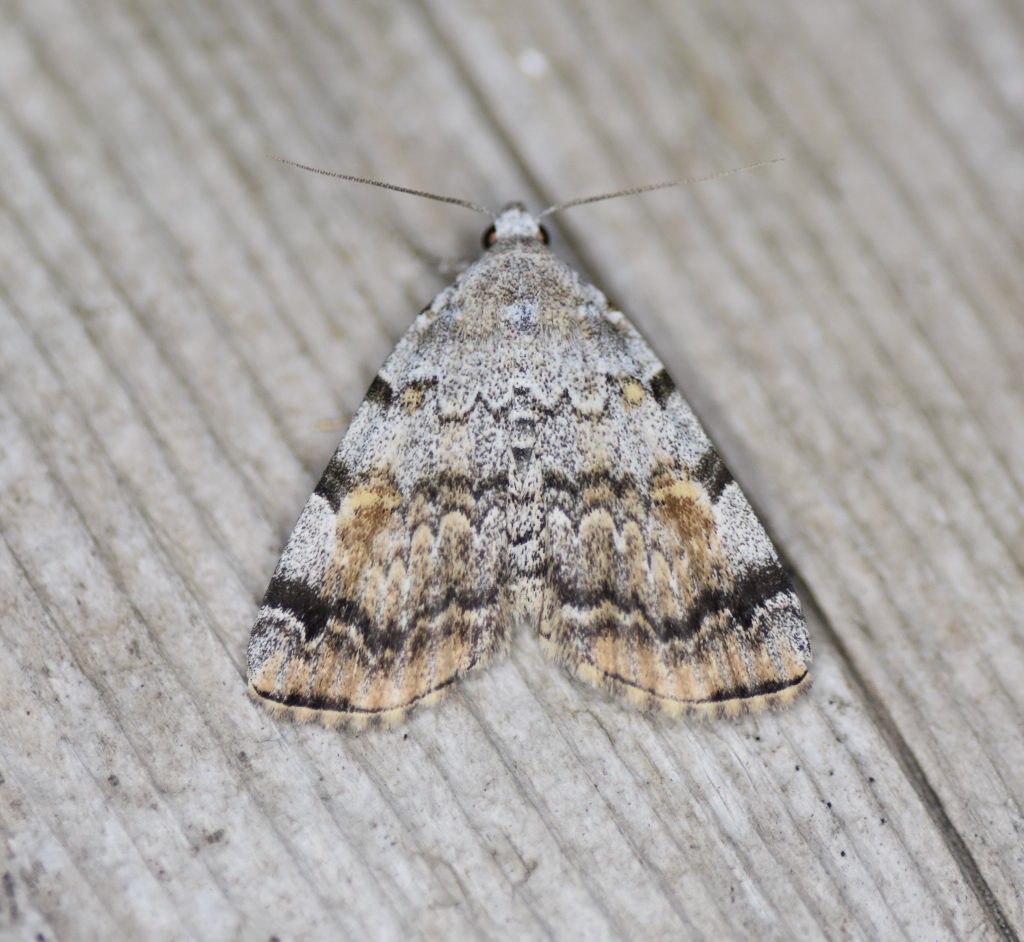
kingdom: Animalia
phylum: Arthropoda
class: Insecta
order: Lepidoptera
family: Erebidae
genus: Idia
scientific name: Idia americalis
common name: American idia moth
